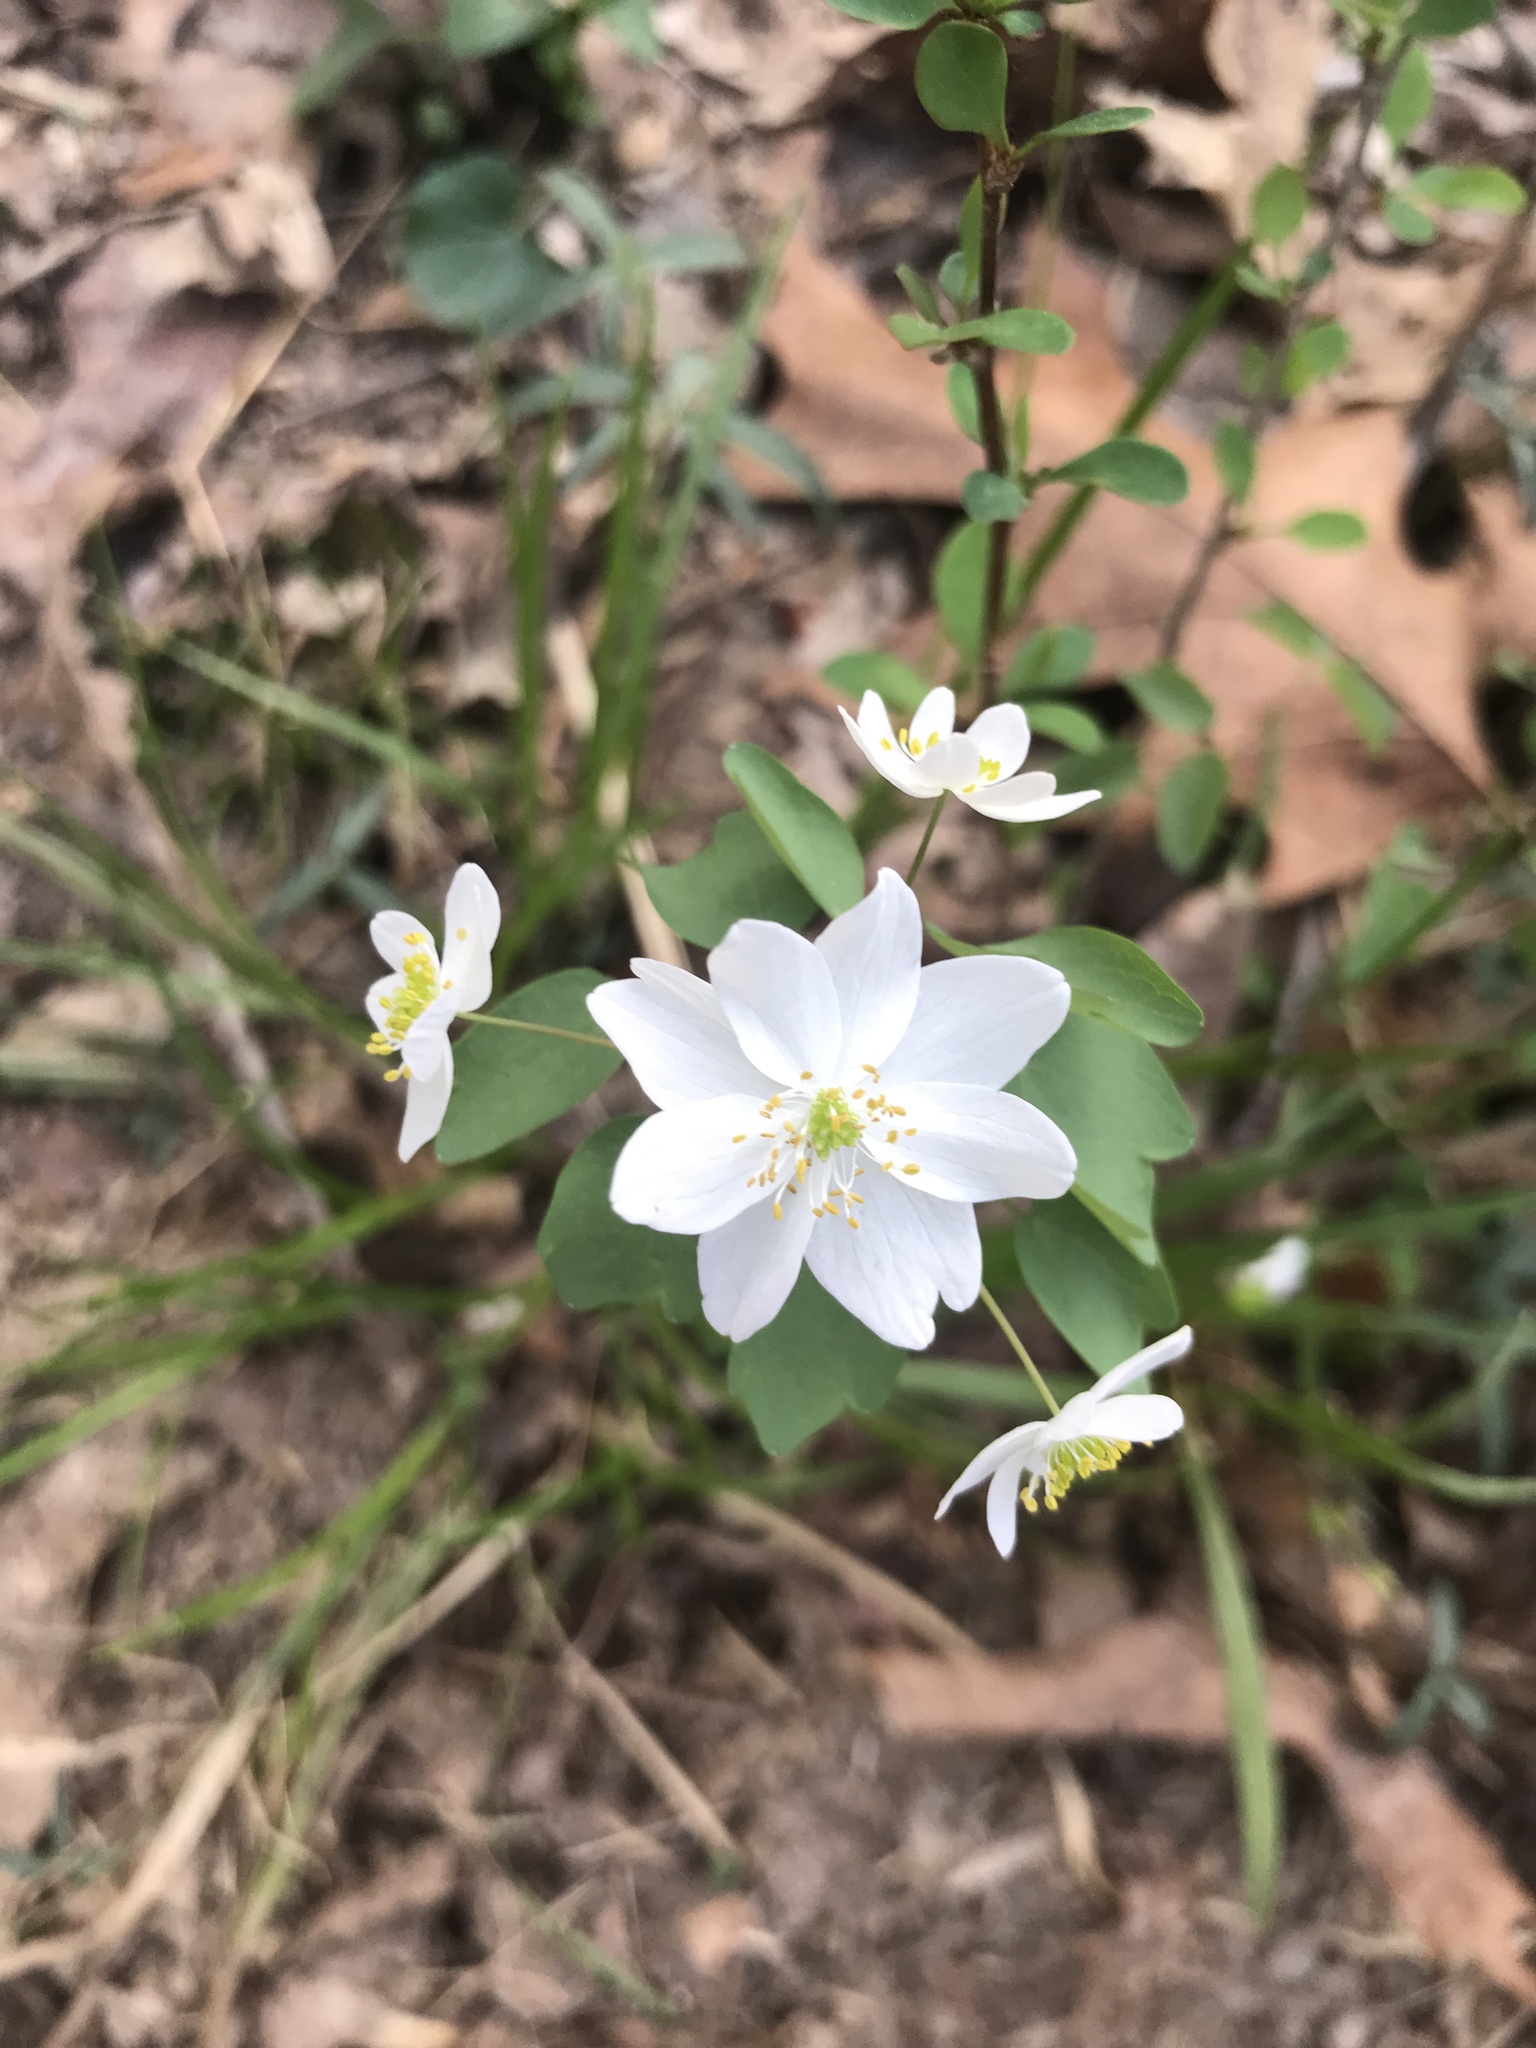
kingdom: Plantae
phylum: Tracheophyta
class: Magnoliopsida
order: Ranunculales
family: Ranunculaceae
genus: Thalictrum
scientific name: Thalictrum thalictroides
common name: Rue-anemone
